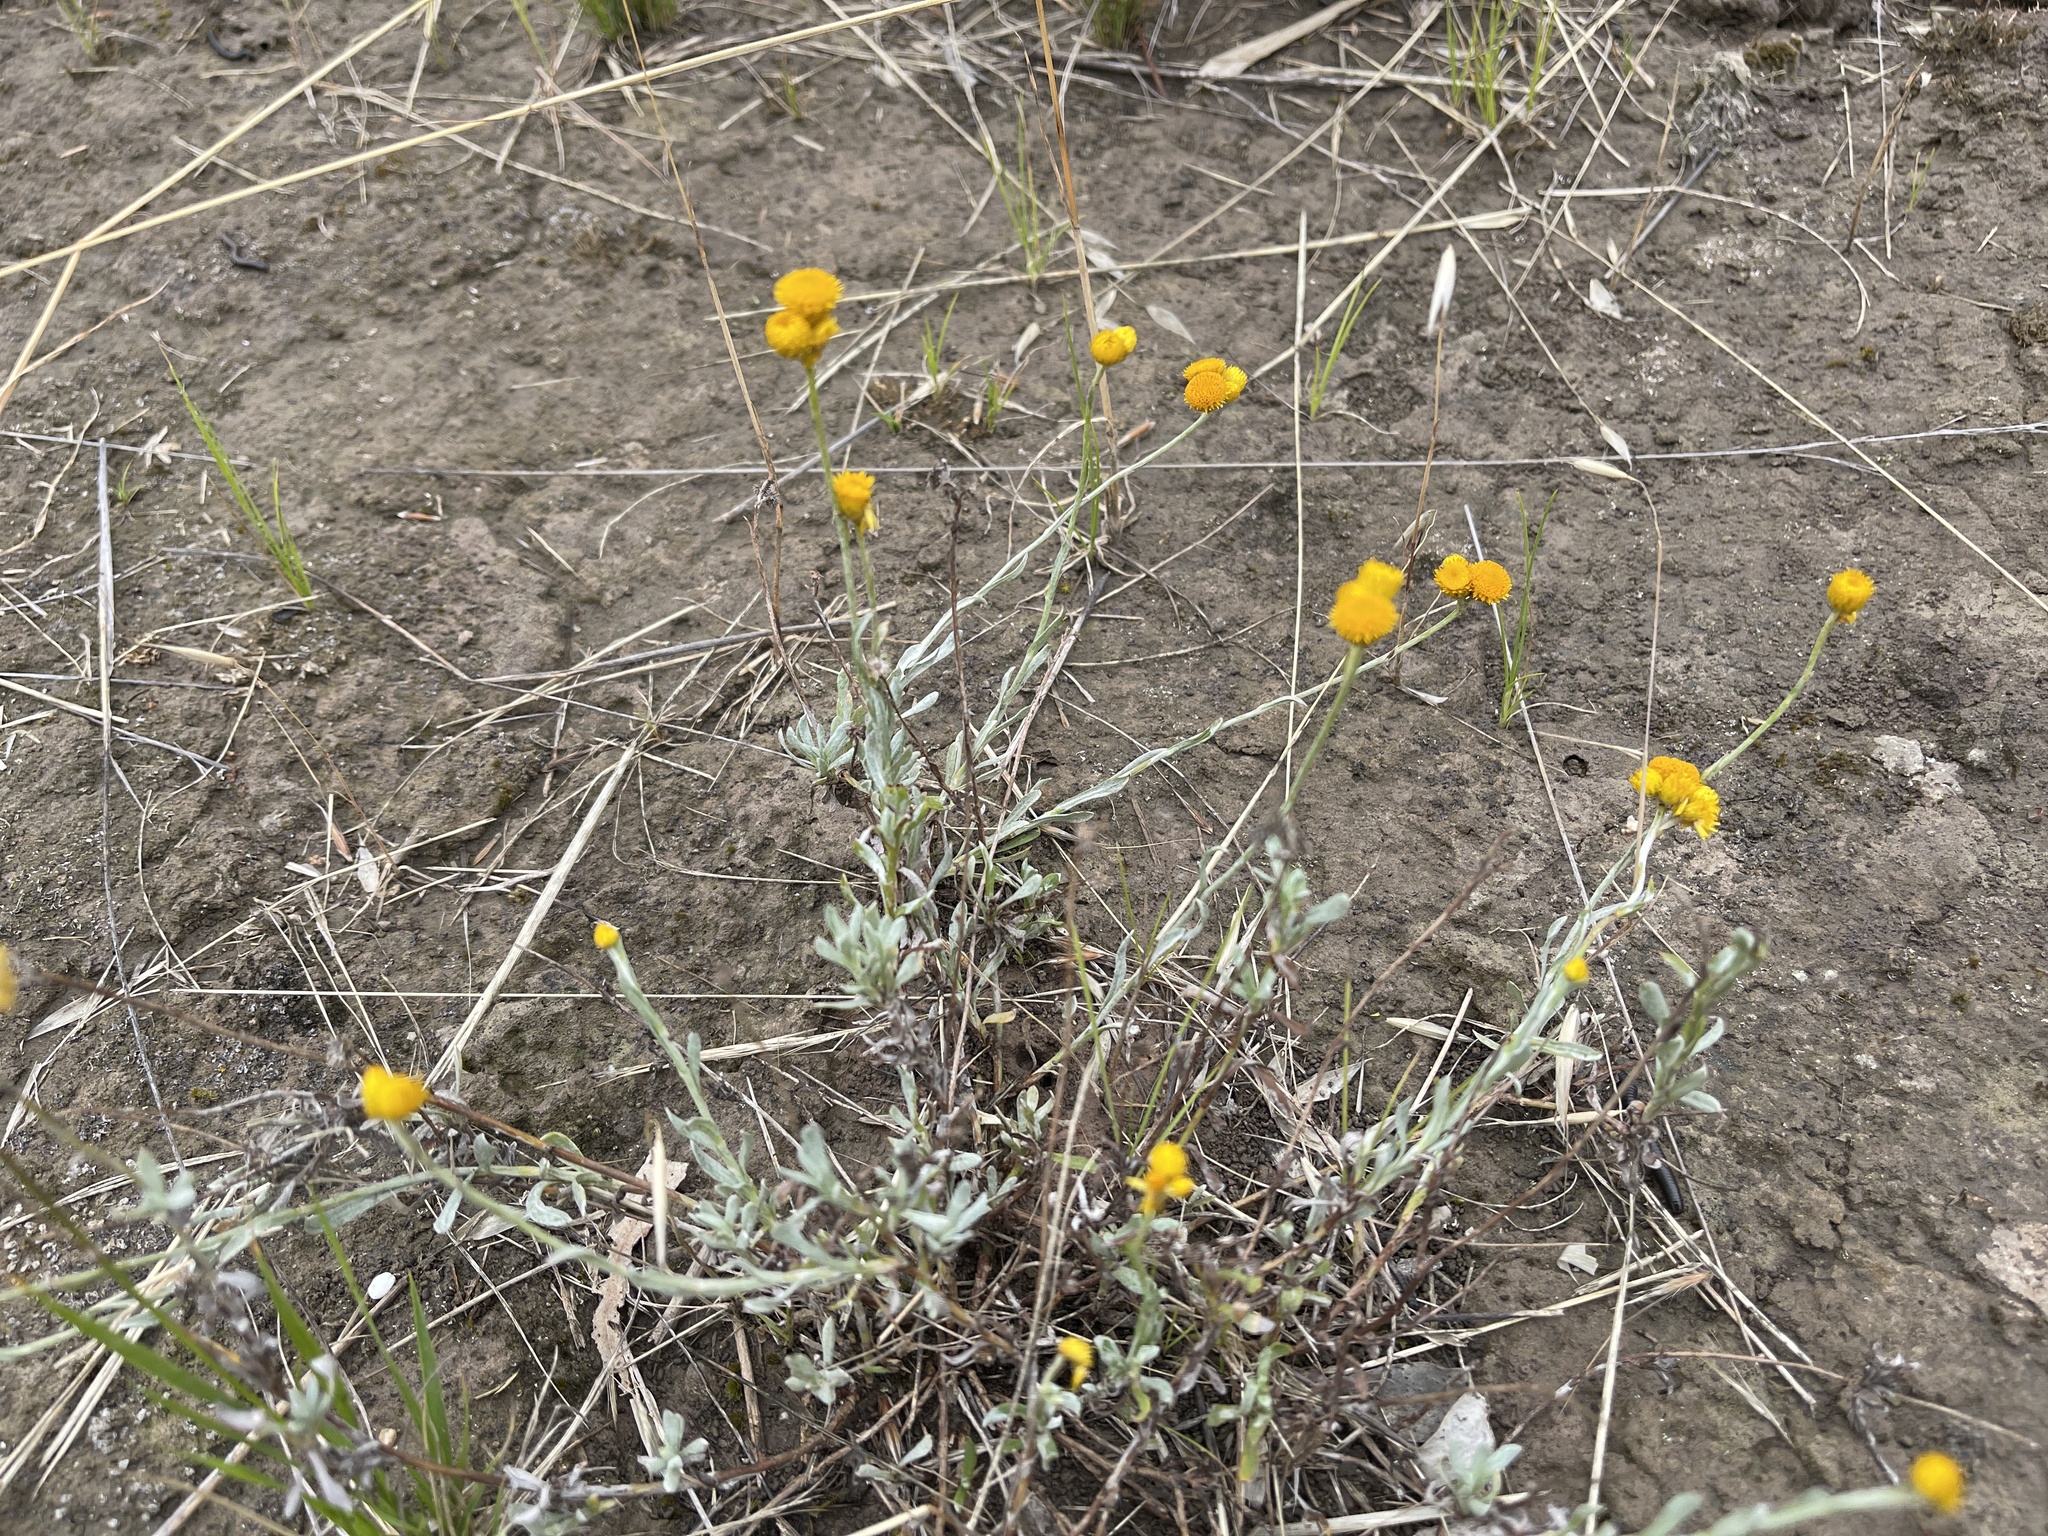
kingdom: Plantae
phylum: Tracheophyta
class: Magnoliopsida
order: Asterales
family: Asteraceae
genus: Chrysocephalum
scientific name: Chrysocephalum apiculatum
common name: Common everlasting
